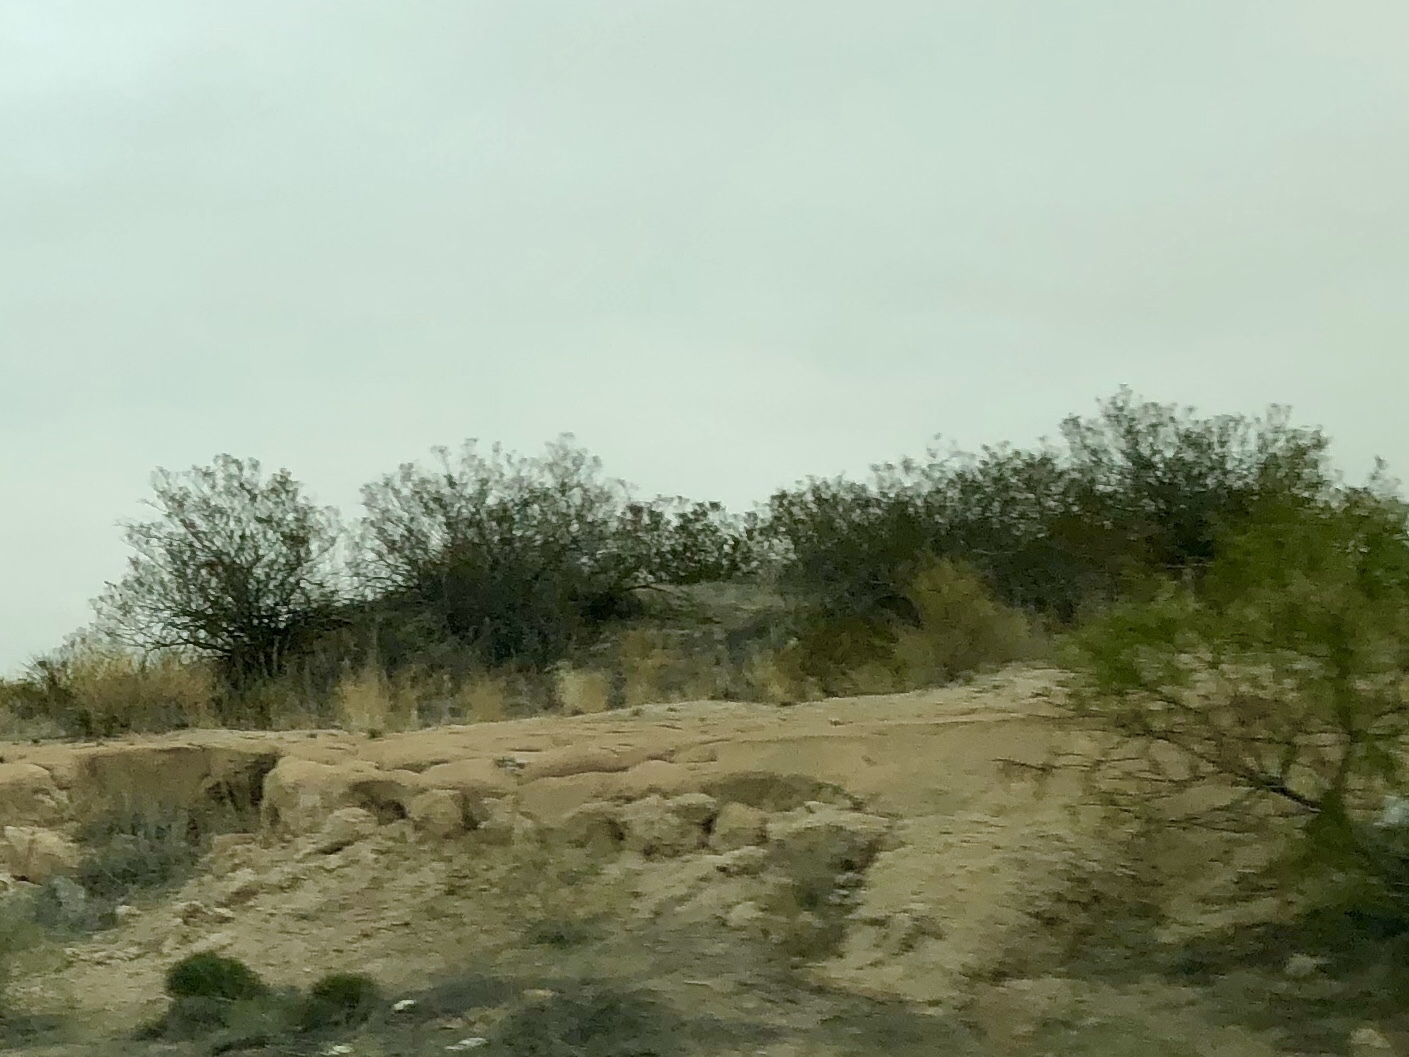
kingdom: Plantae
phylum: Tracheophyta
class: Magnoliopsida
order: Zygophyllales
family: Zygophyllaceae
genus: Larrea
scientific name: Larrea tridentata
